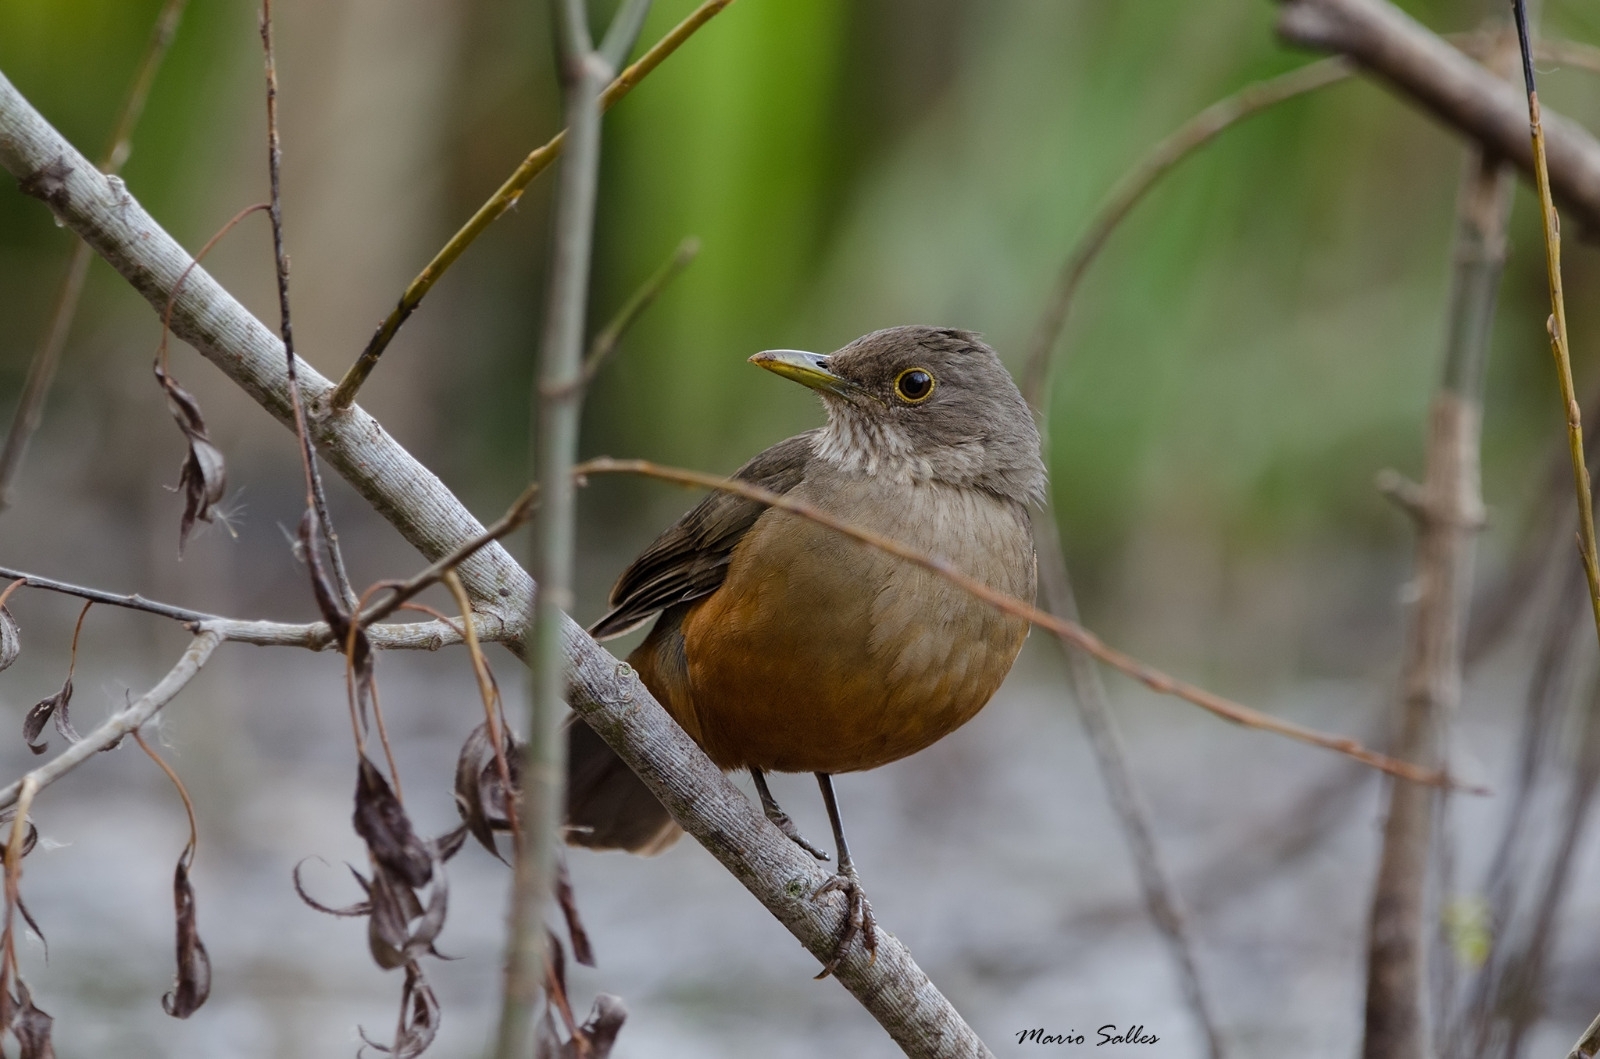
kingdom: Animalia
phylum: Chordata
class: Aves
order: Passeriformes
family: Turdidae
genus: Turdus
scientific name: Turdus rufiventris
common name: Rufous-bellied thrush
